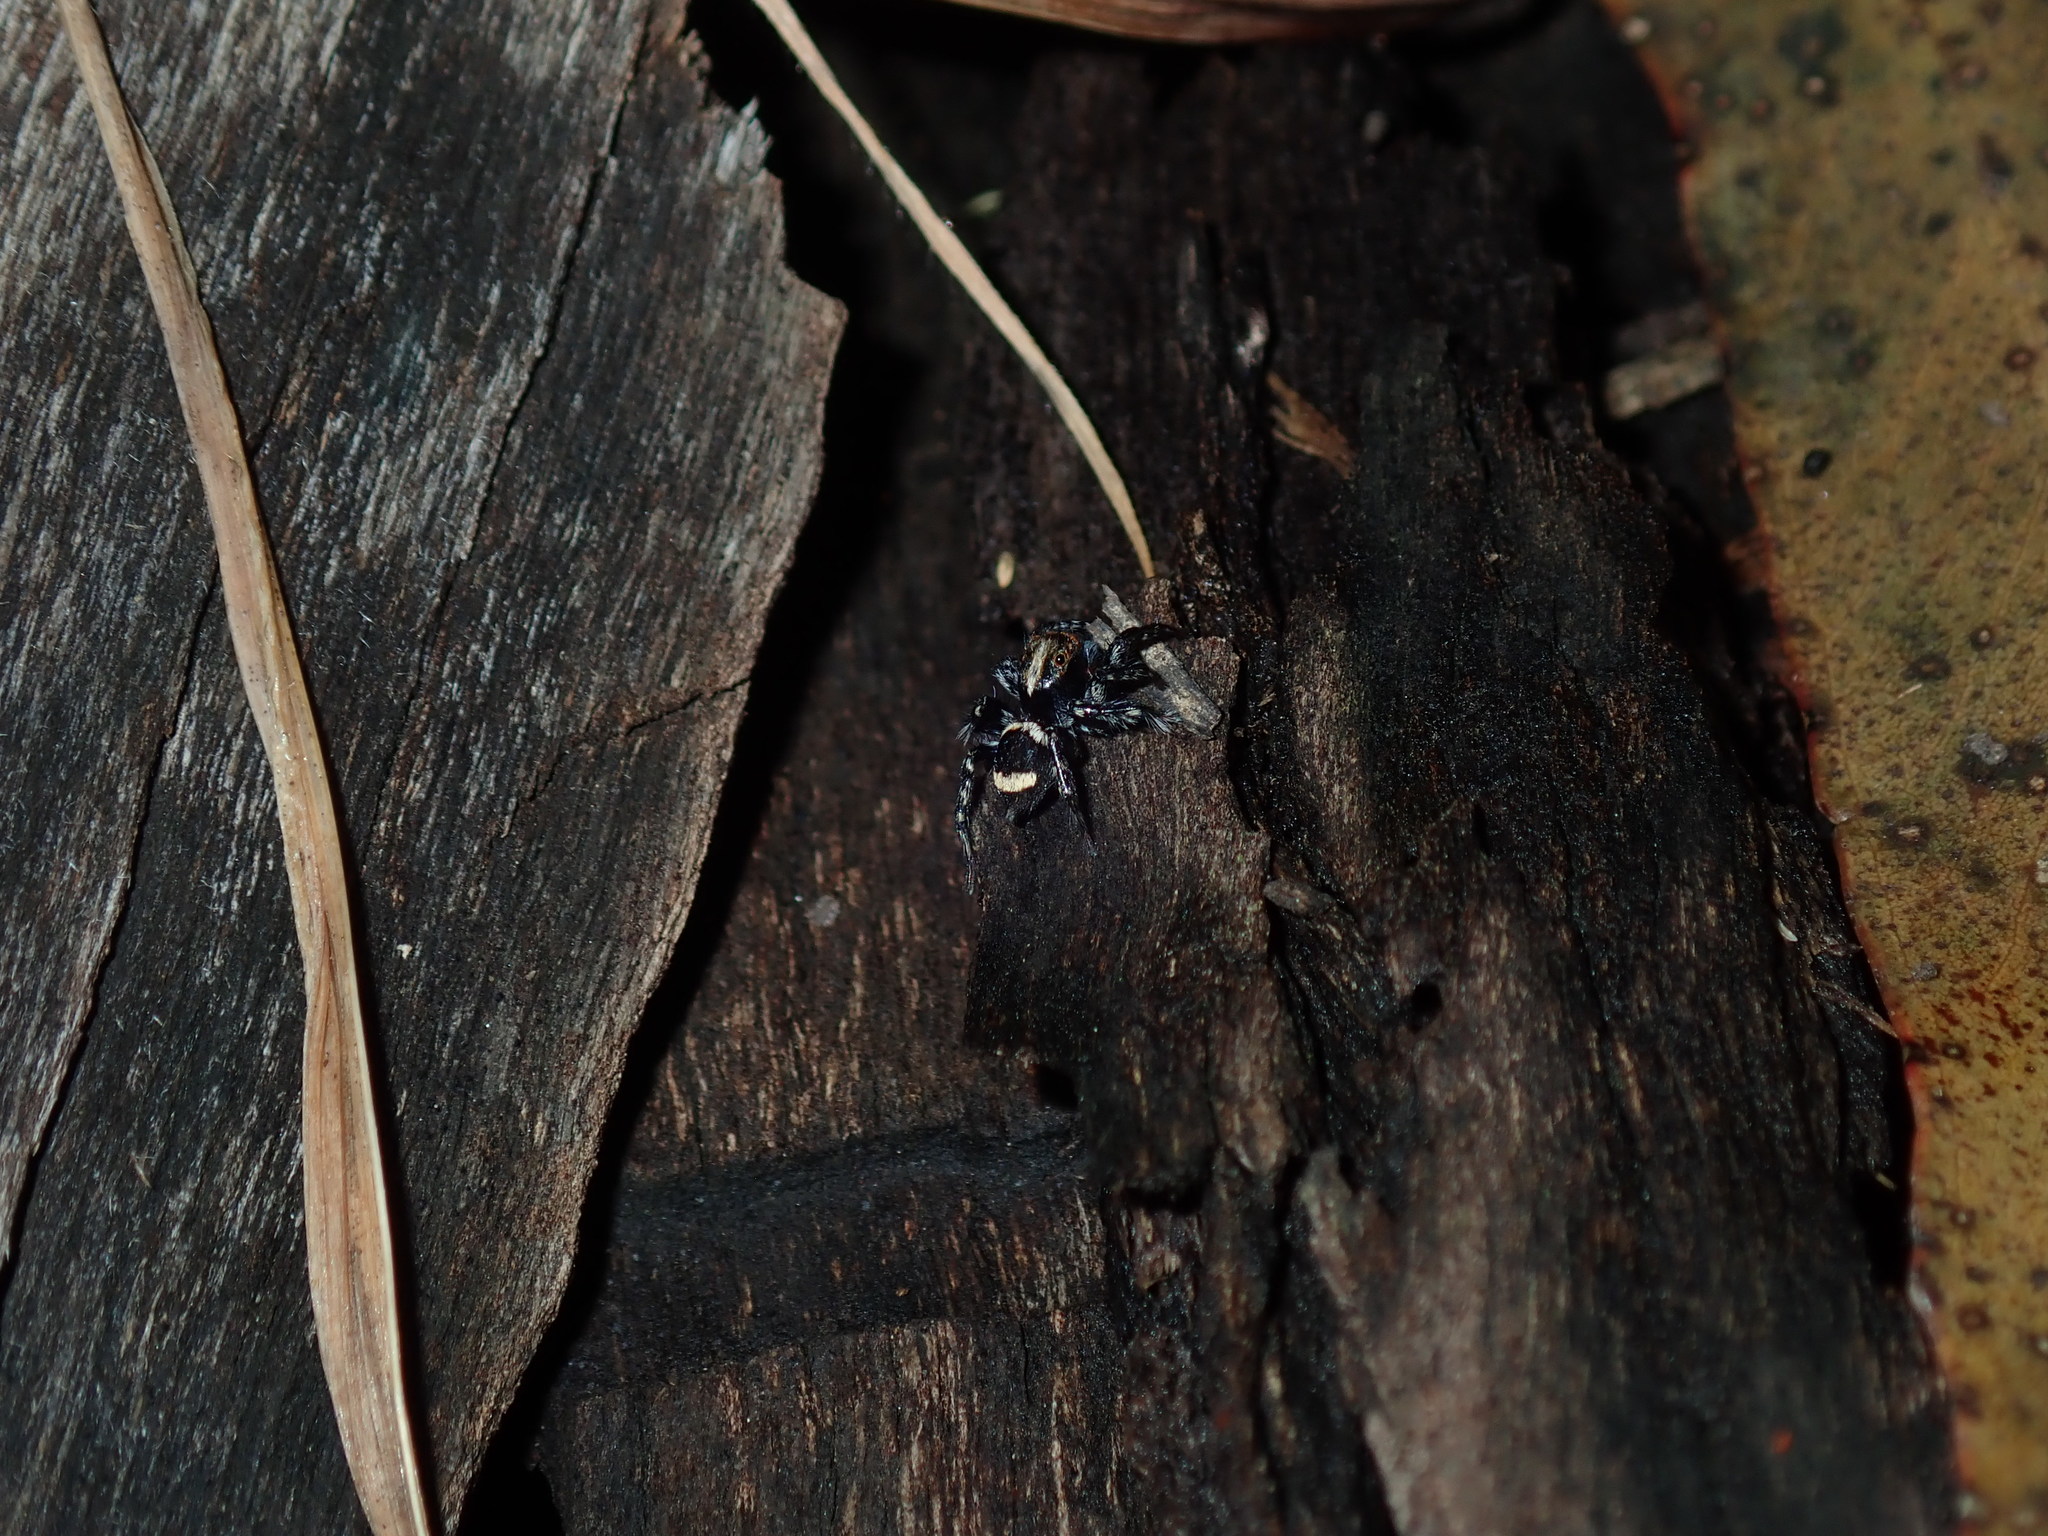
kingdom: Animalia
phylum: Arthropoda
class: Arachnida
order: Araneae
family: Salticidae
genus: Saitis
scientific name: Saitis virgatus
